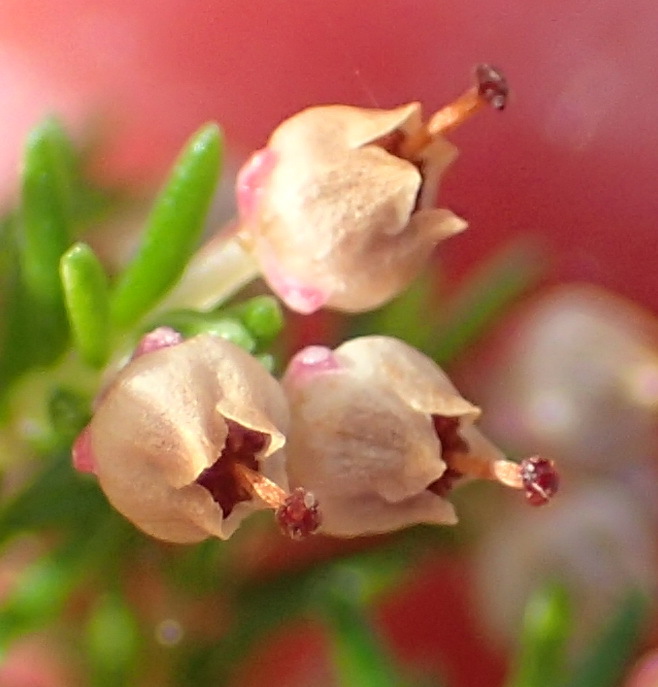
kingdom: Plantae
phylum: Tracheophyta
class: Magnoliopsida
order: Ericales
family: Ericaceae
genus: Erica
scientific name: Erica inconstans
